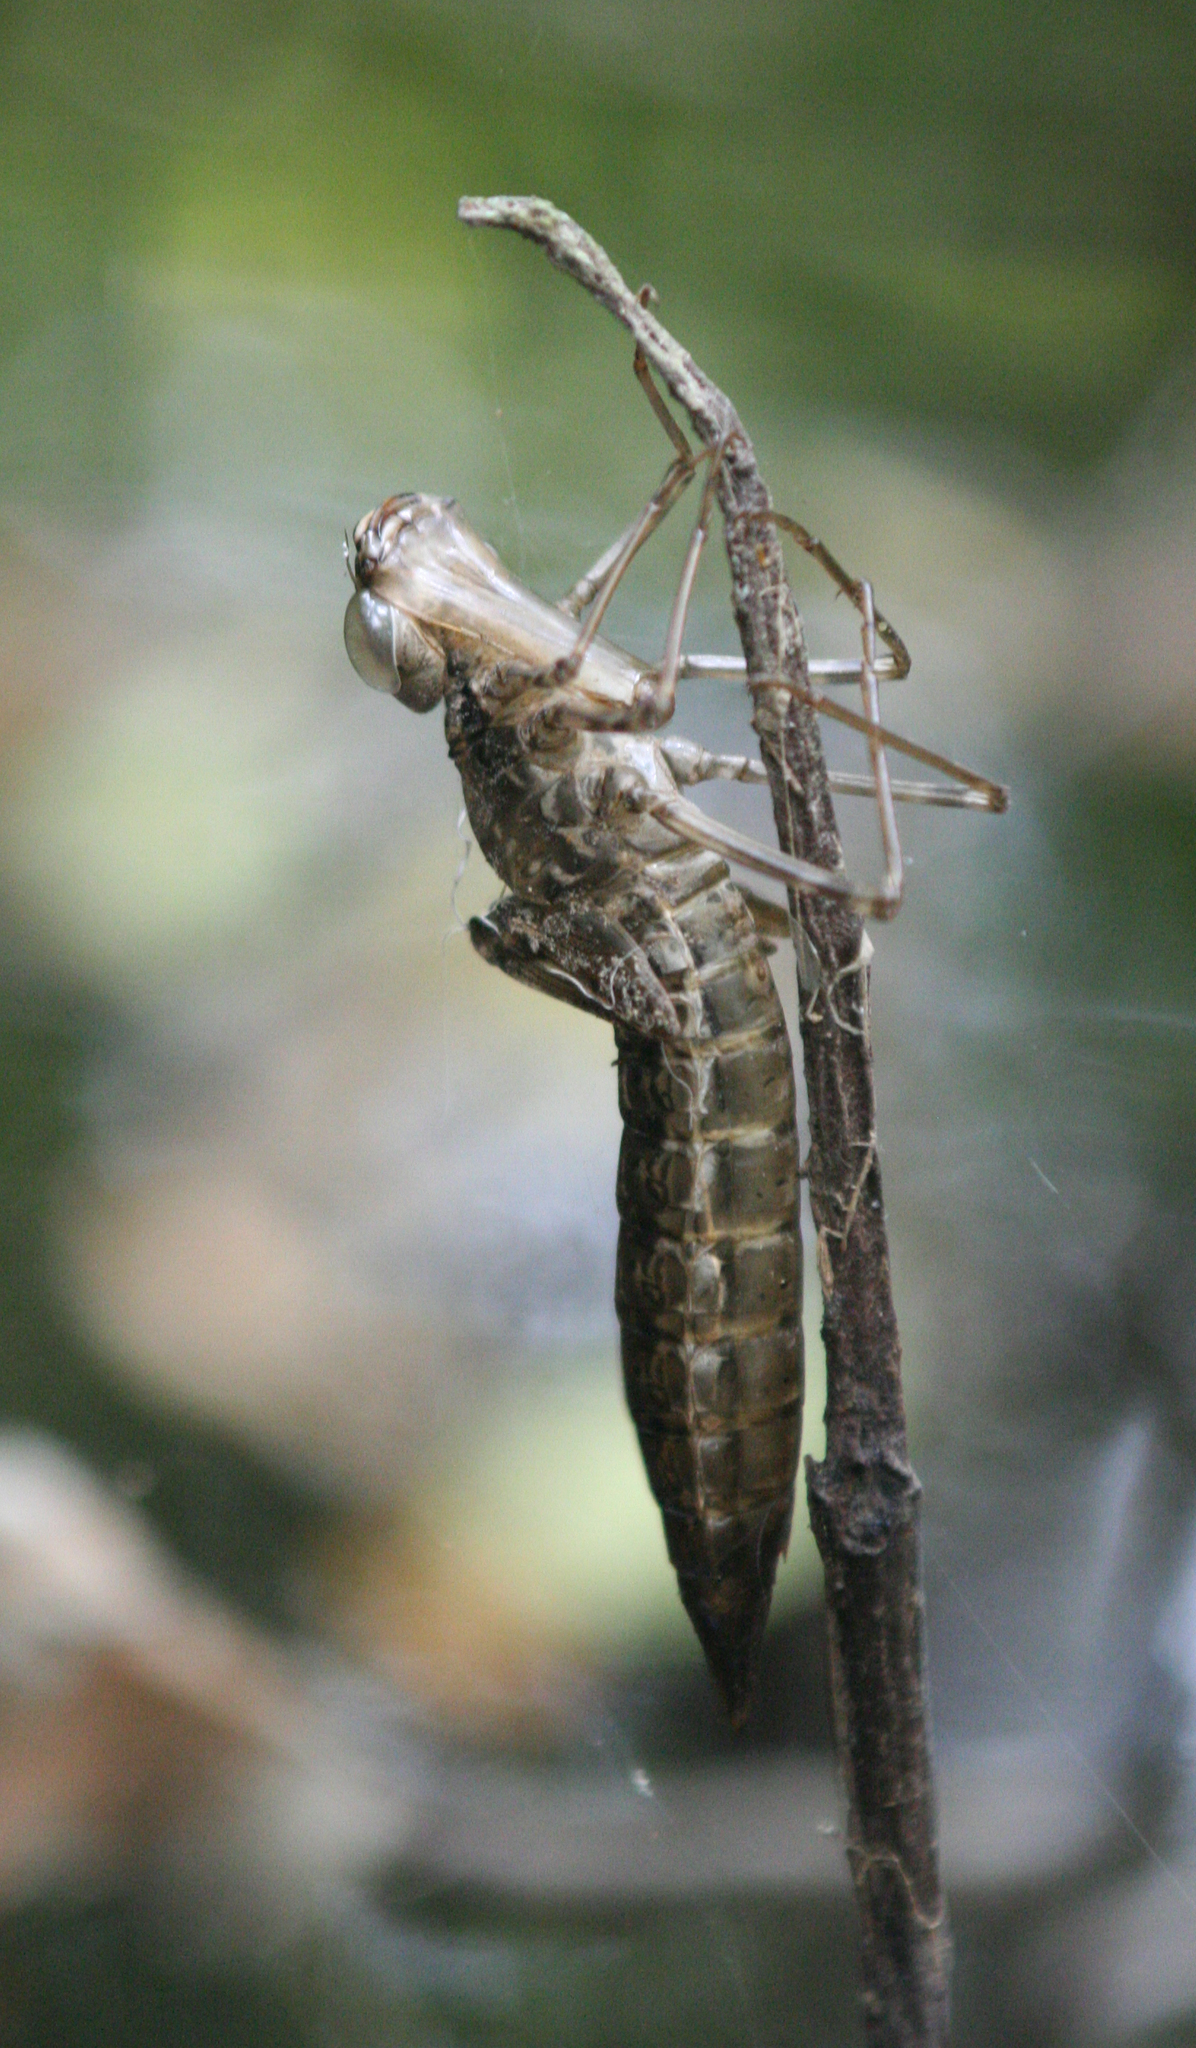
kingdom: Animalia
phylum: Arthropoda
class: Insecta
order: Odonata
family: Aeshnidae
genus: Anax
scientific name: Anax aurantiacus
